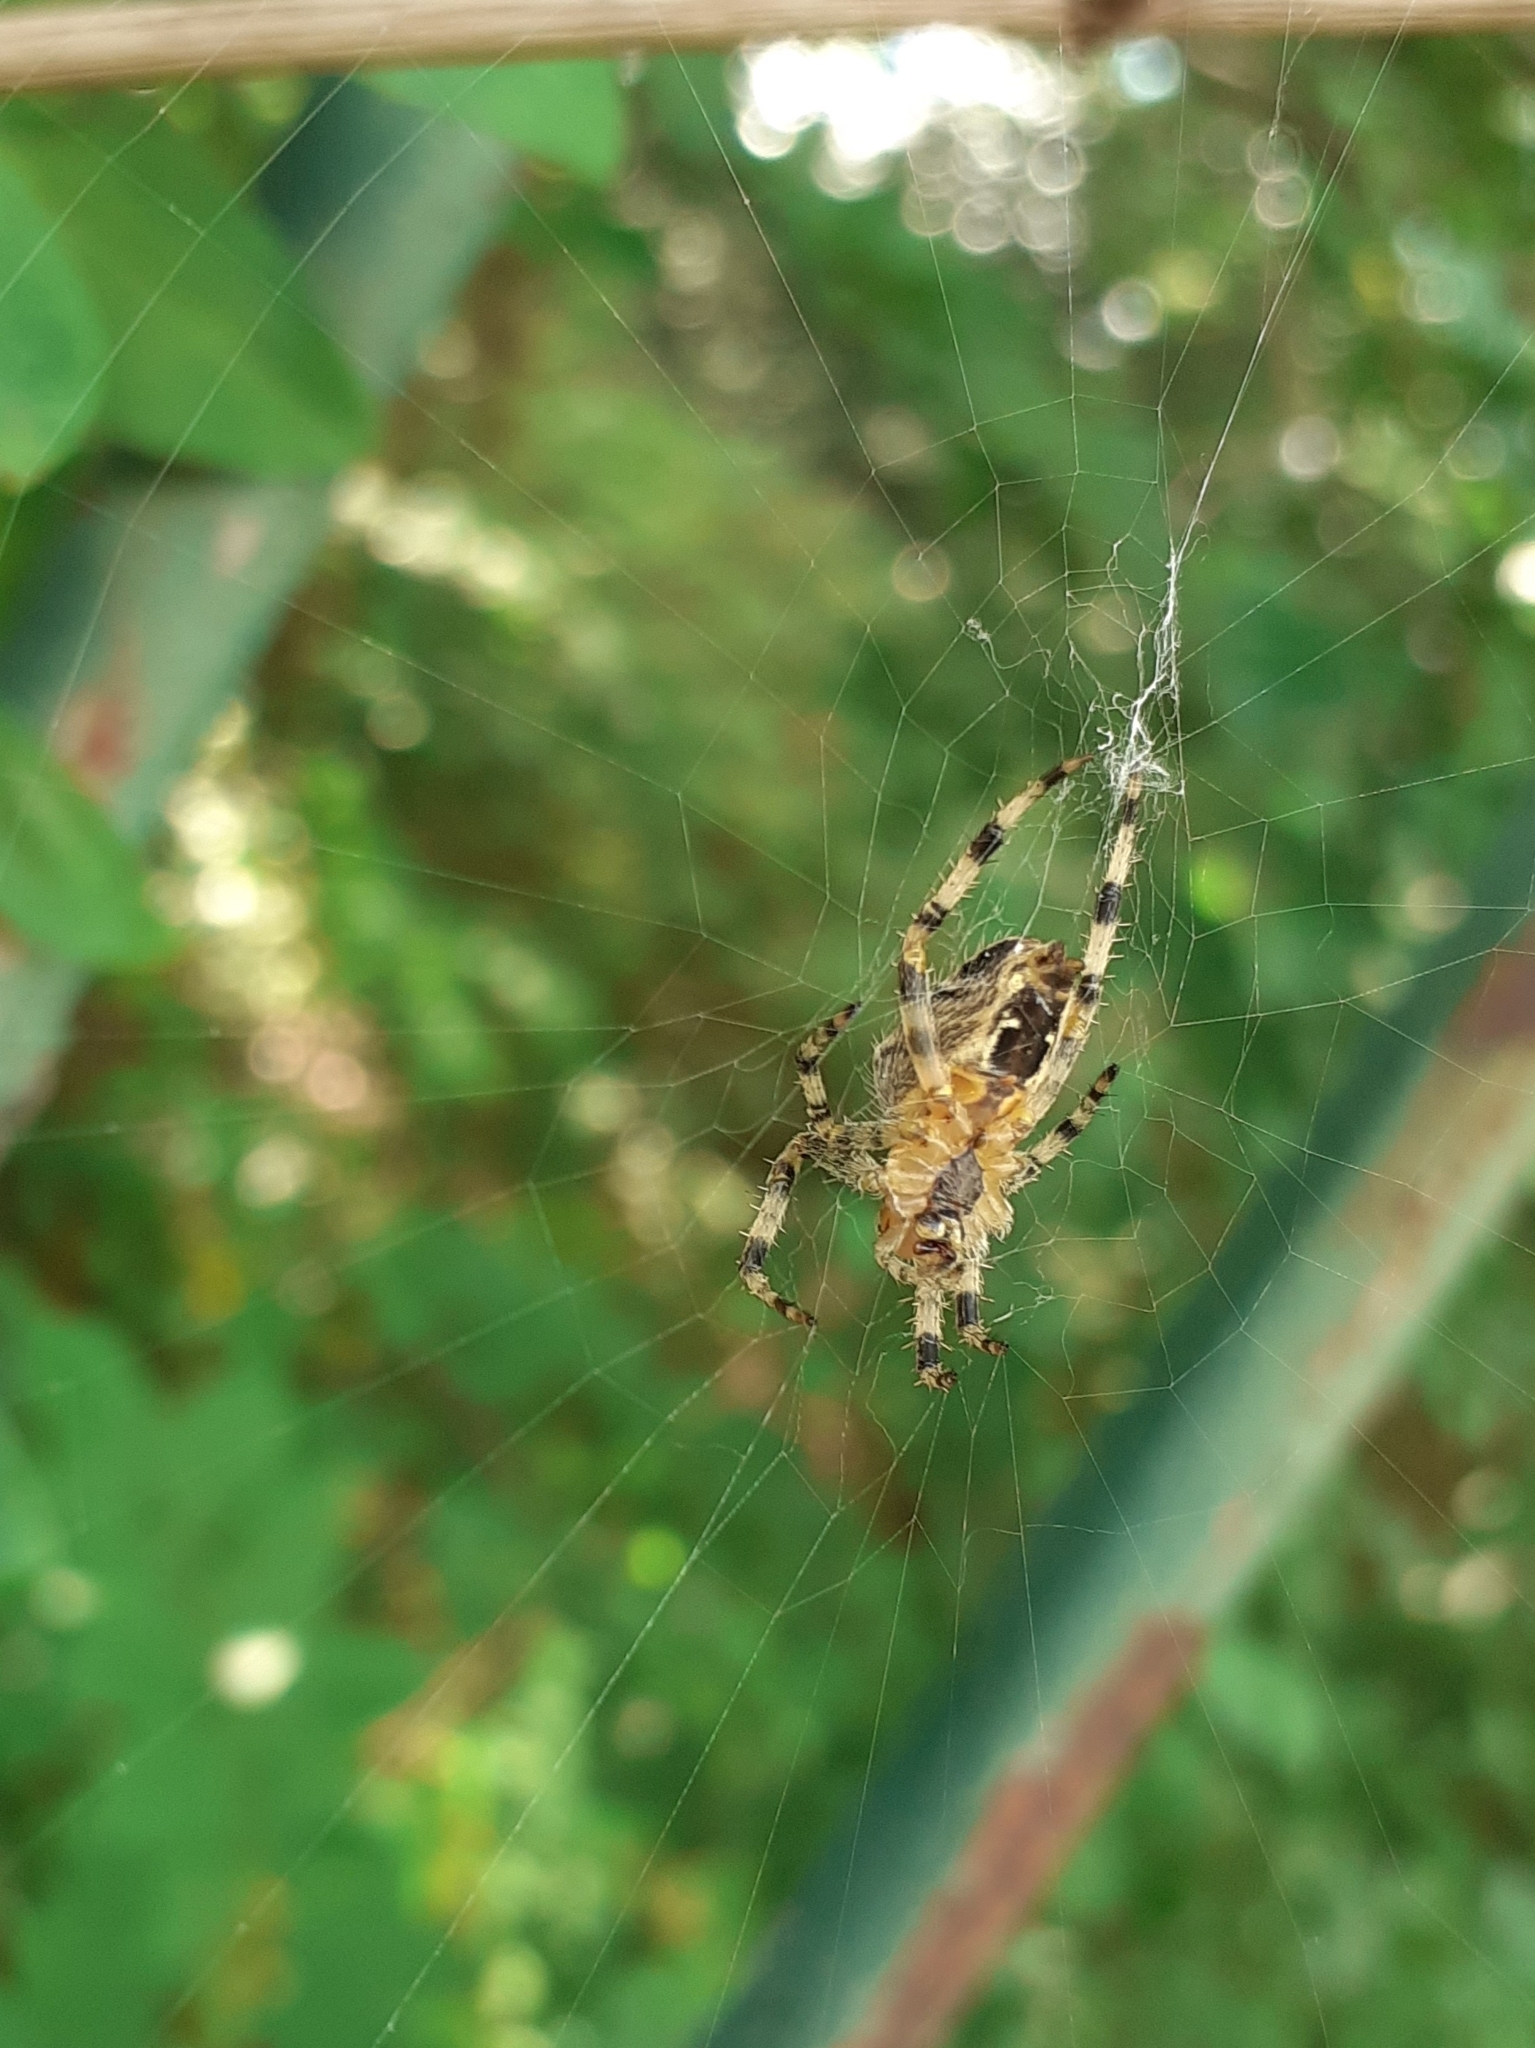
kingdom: Animalia
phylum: Arthropoda
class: Arachnida
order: Araneae
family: Araneidae
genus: Araneus
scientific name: Araneus diadematus
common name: Cross orbweaver
